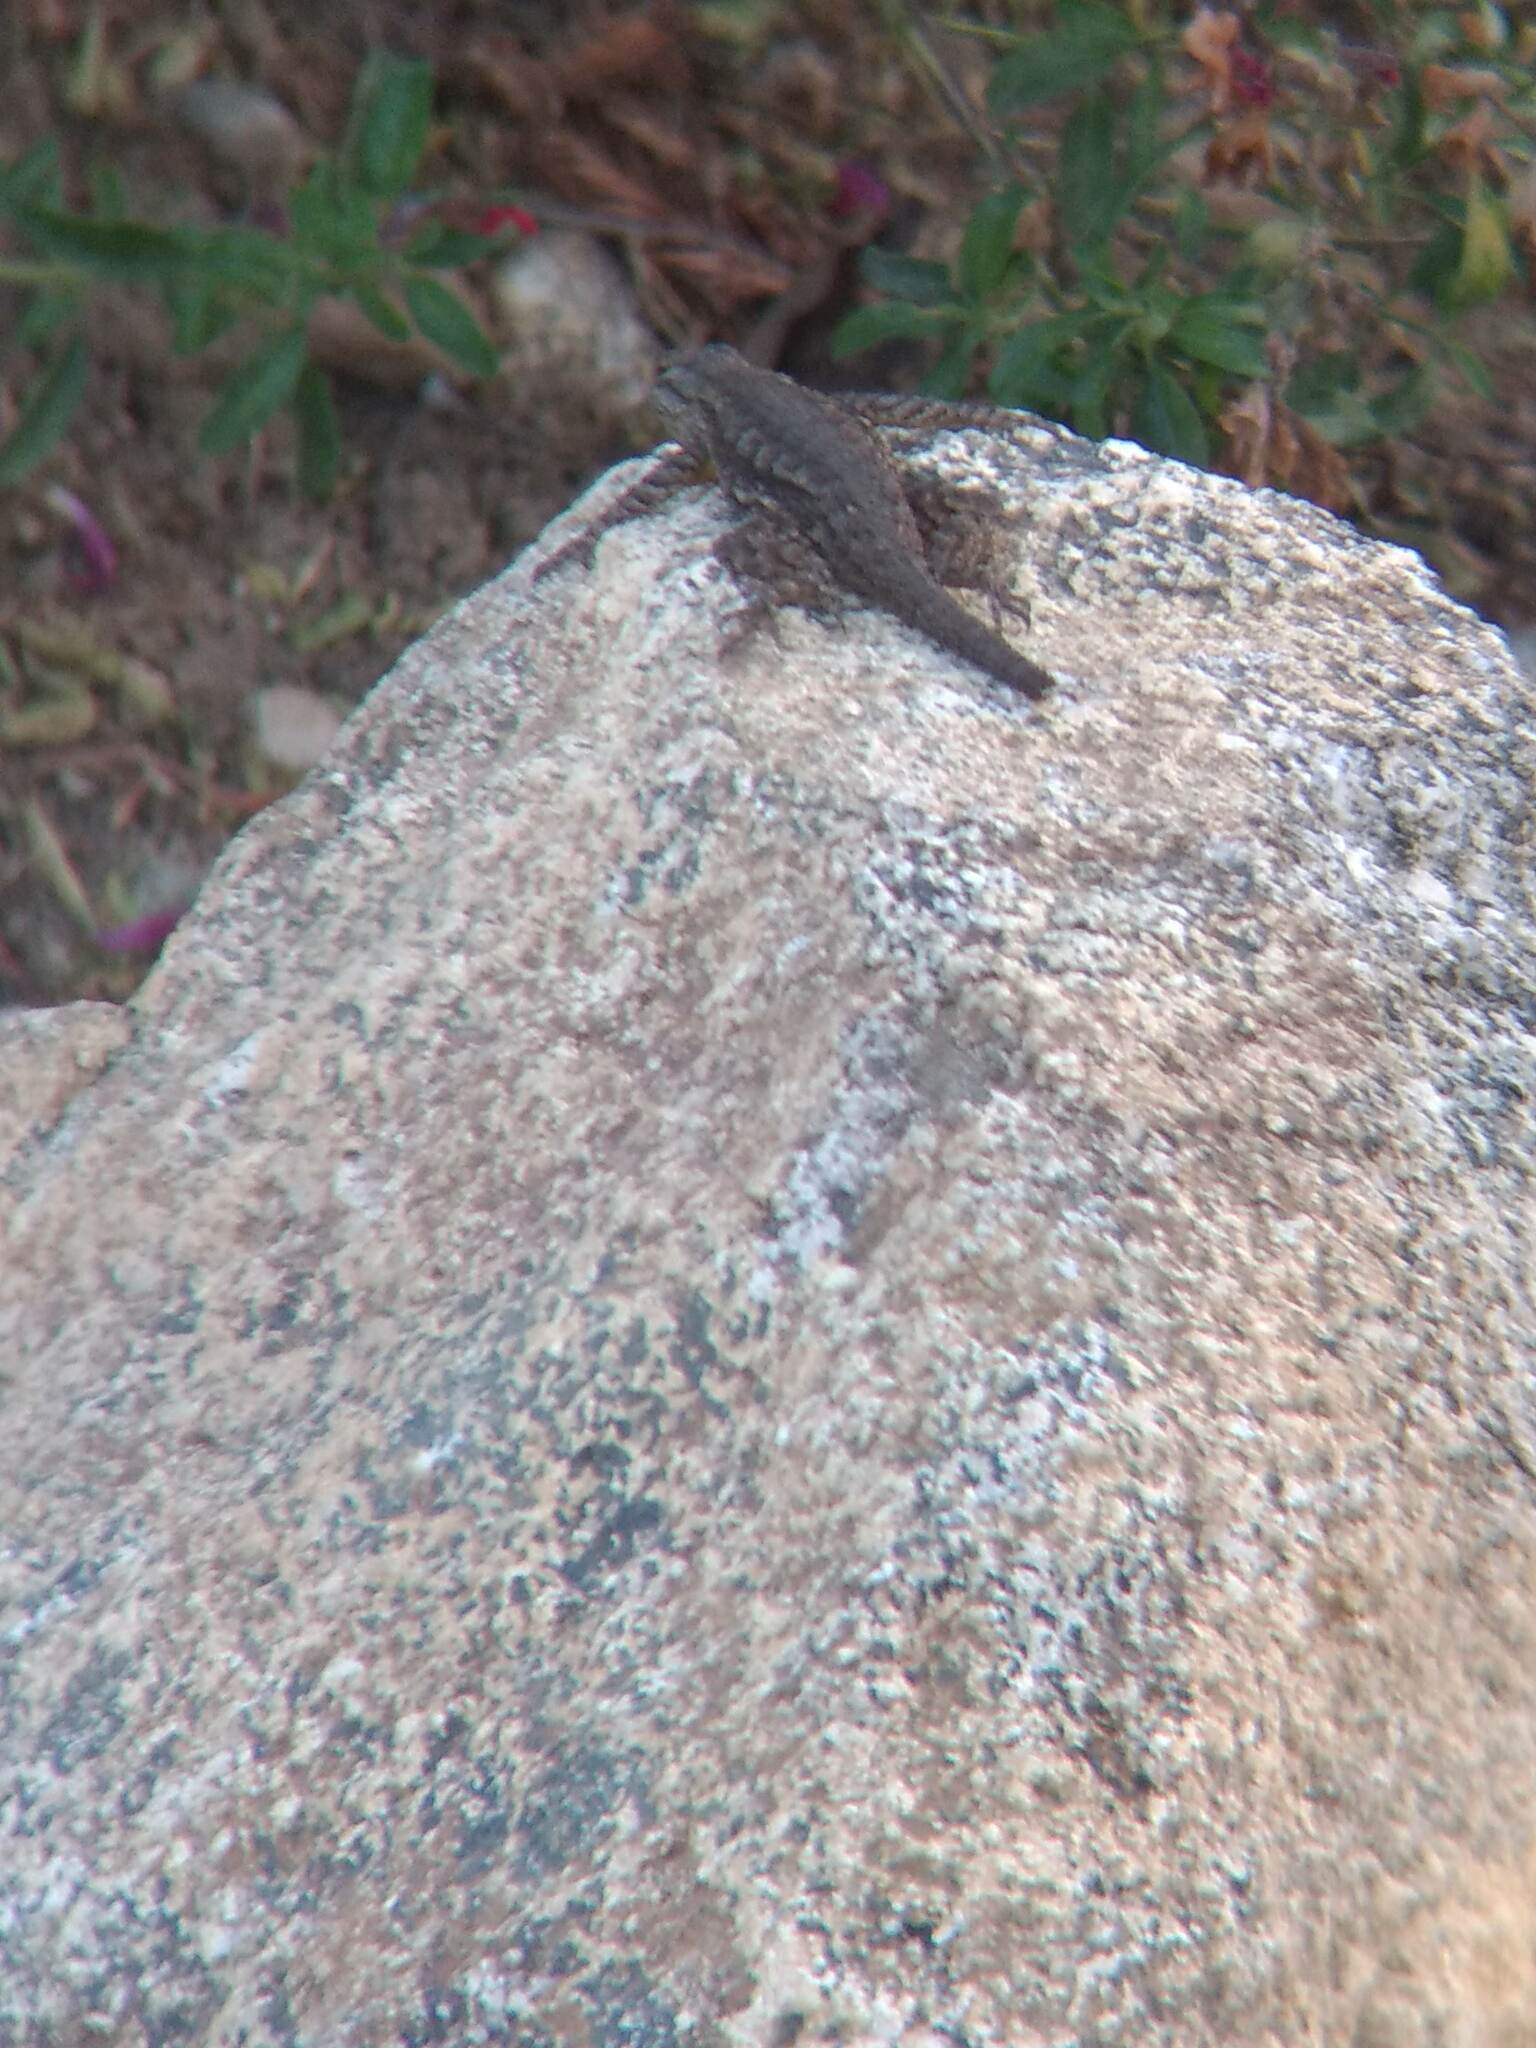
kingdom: Animalia
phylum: Chordata
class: Squamata
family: Phrynosomatidae
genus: Sceloporus
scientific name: Sceloporus occidentalis
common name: Western fence lizard
